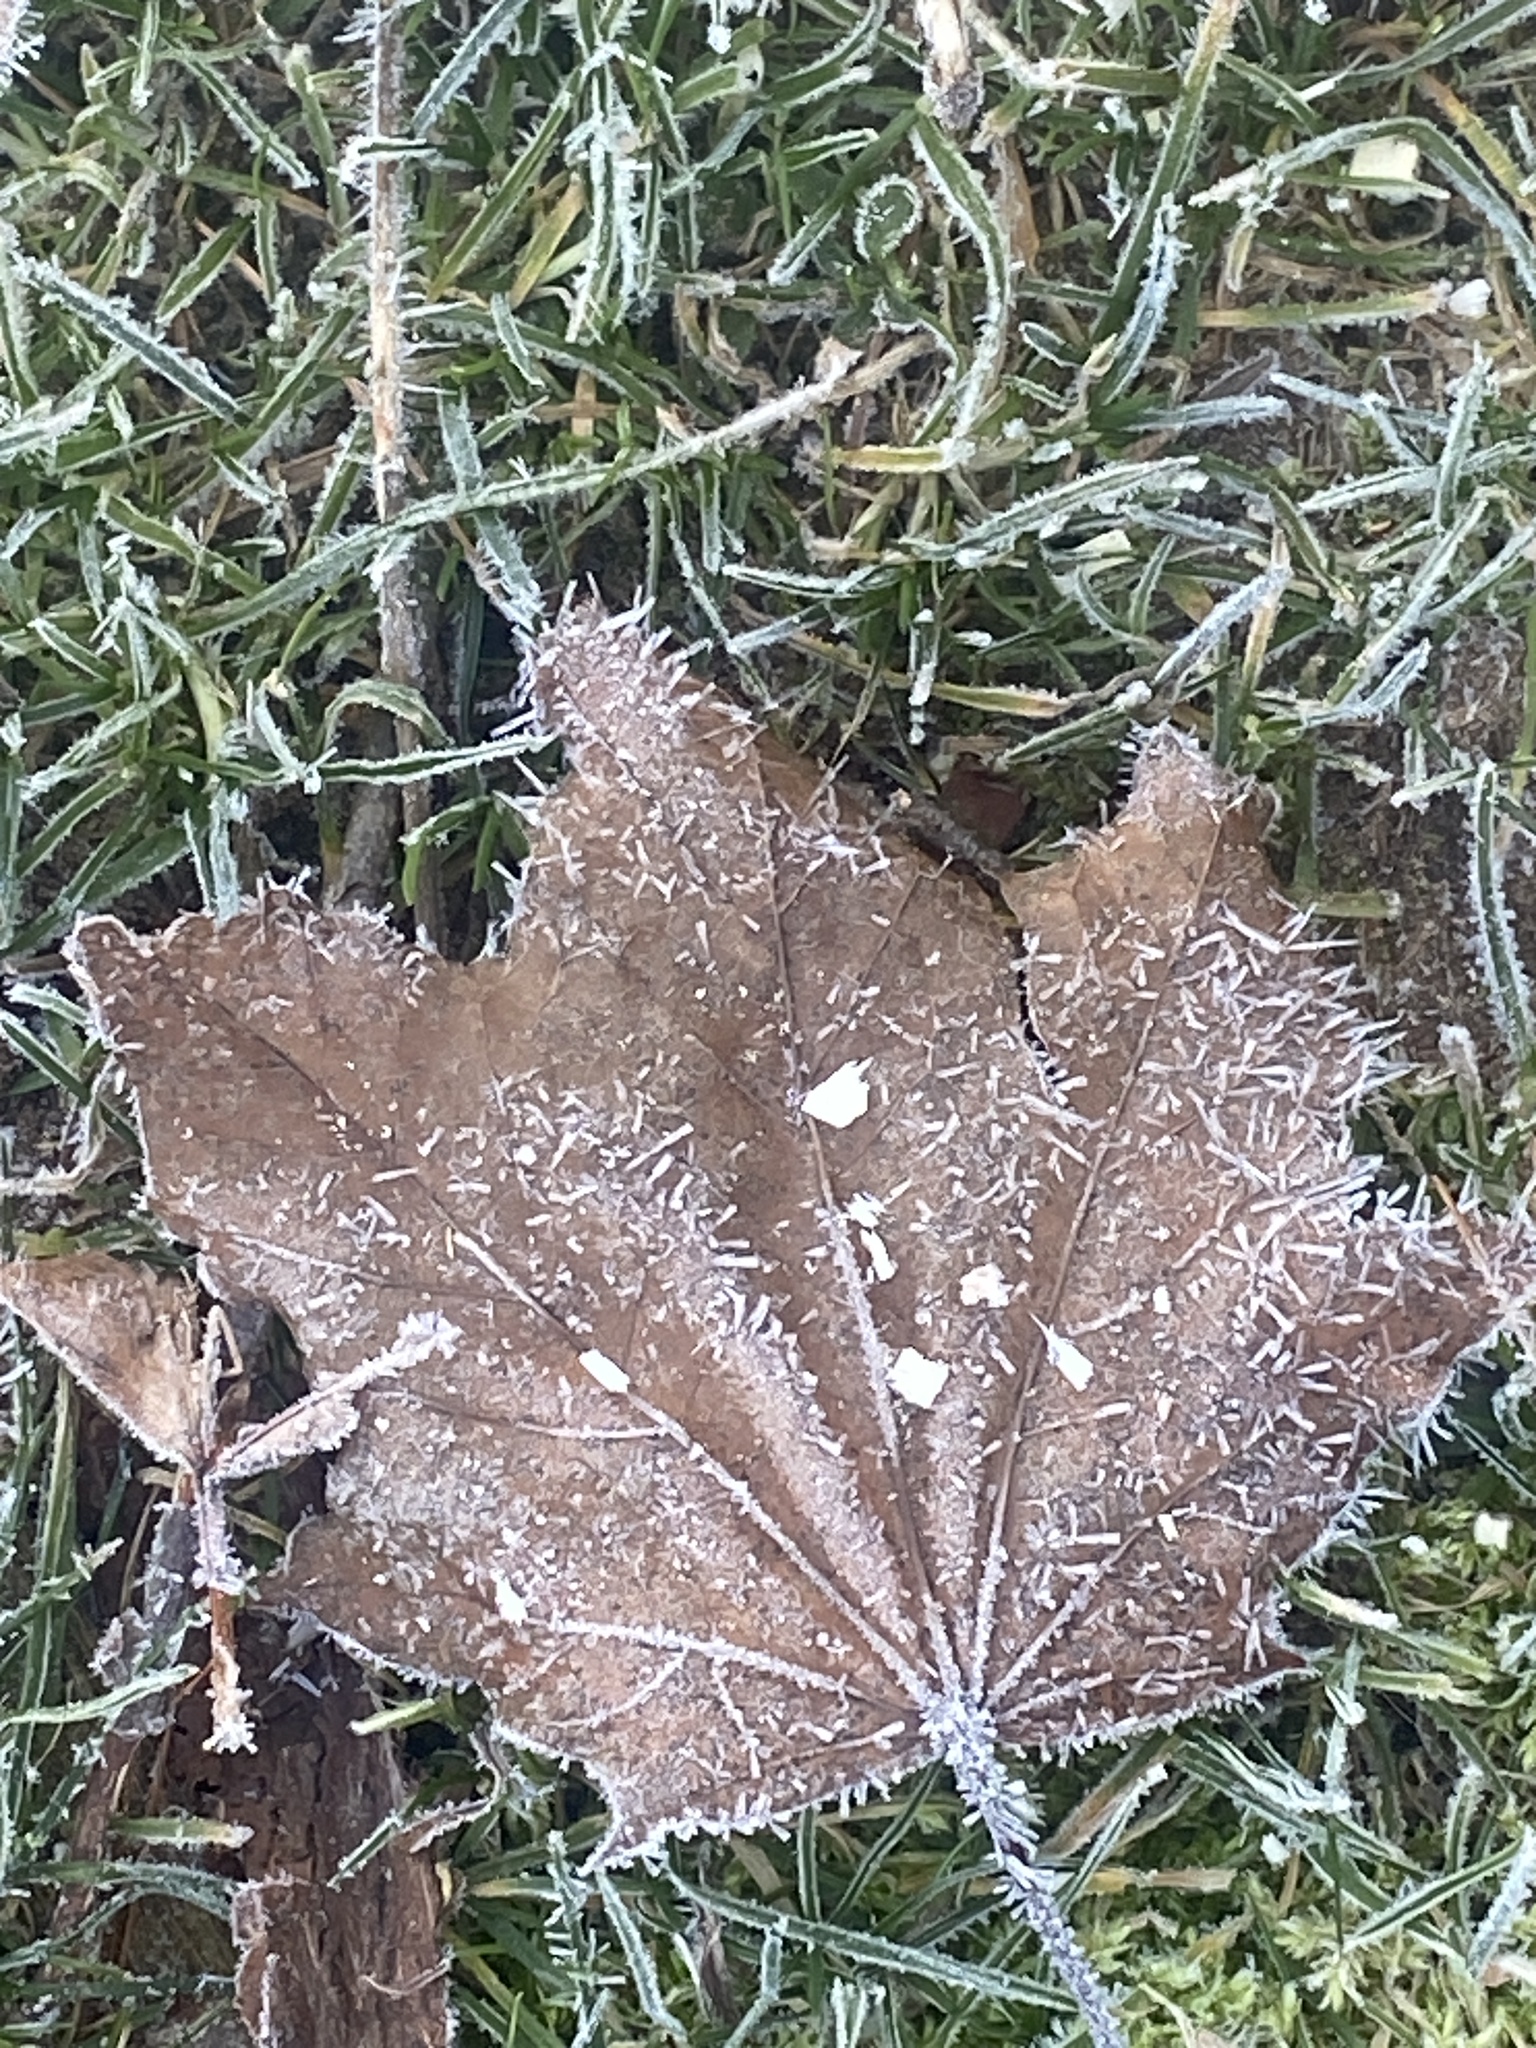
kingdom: Plantae
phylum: Tracheophyta
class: Magnoliopsida
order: Sapindales
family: Sapindaceae
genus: Acer
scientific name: Acer platanoides
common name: Norway maple
